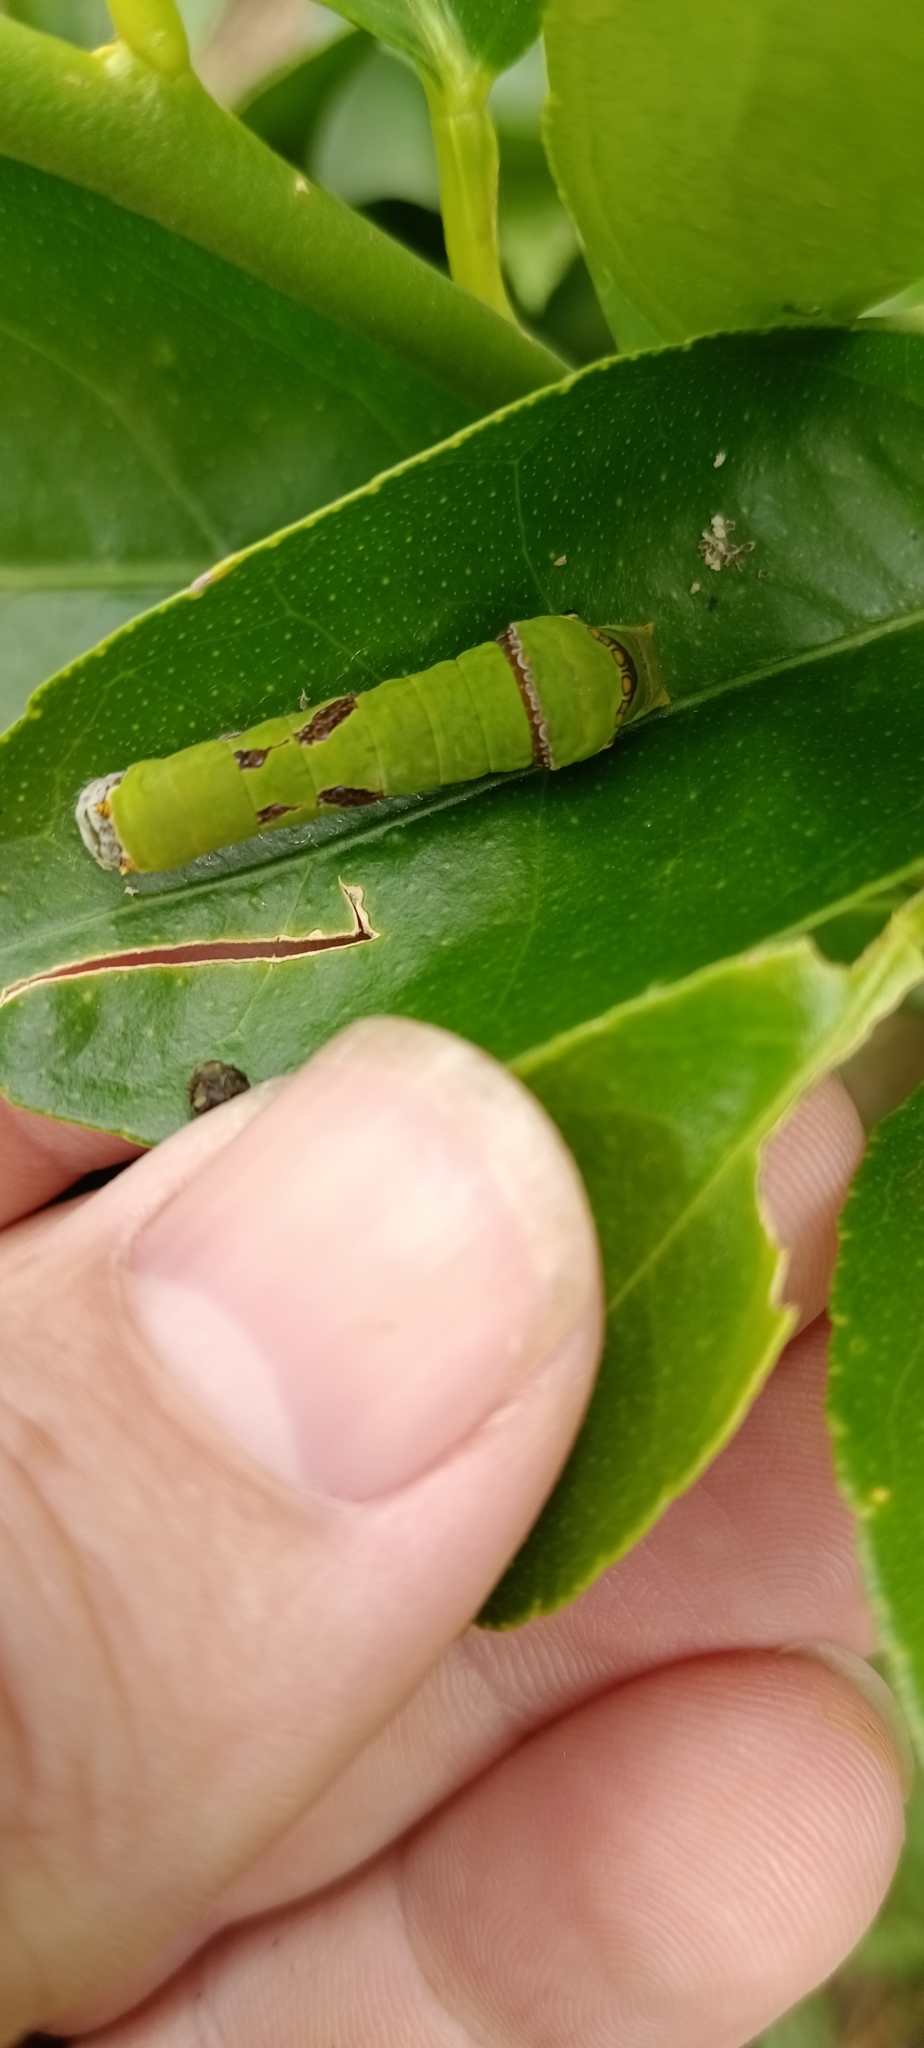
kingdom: Animalia
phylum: Arthropoda
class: Insecta
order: Lepidoptera
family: Papilionidae
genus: Papilio
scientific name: Papilio demodocus
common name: Christmas butterfly
